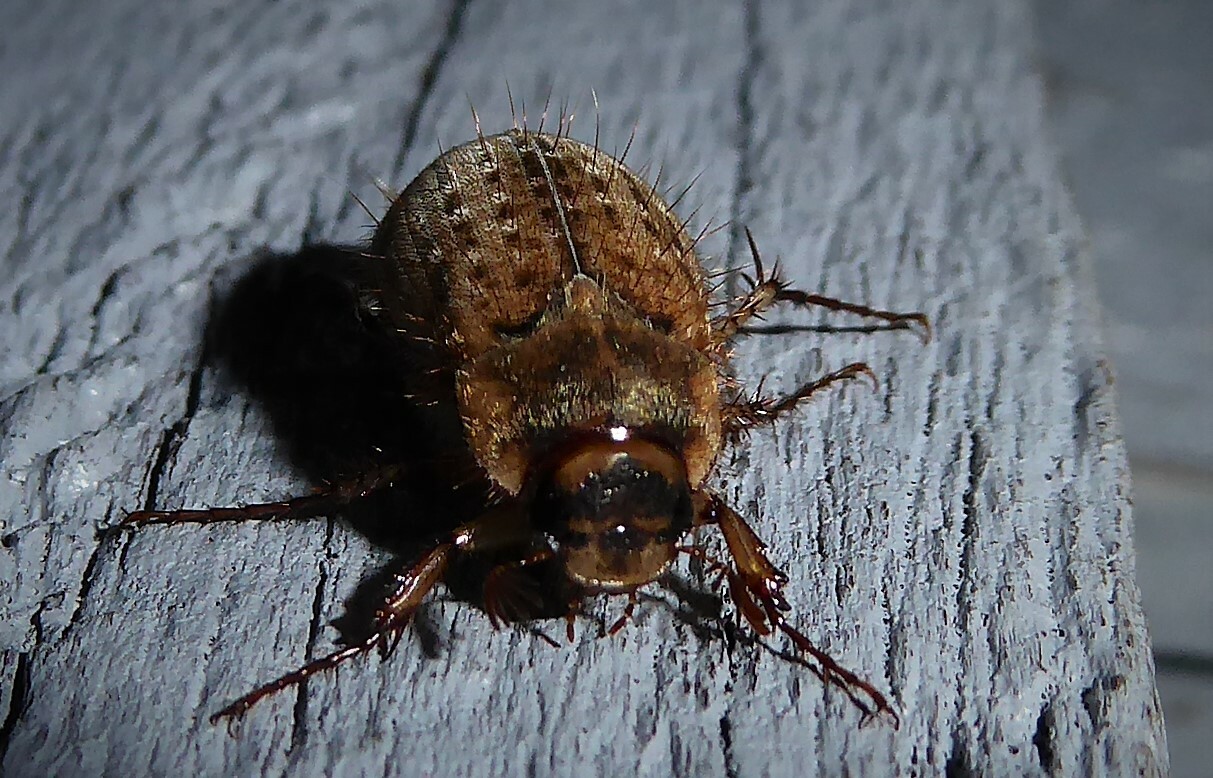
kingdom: Animalia
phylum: Arthropoda
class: Insecta
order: Coleoptera
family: Scarabaeidae
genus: Odontria
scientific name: Odontria striata
